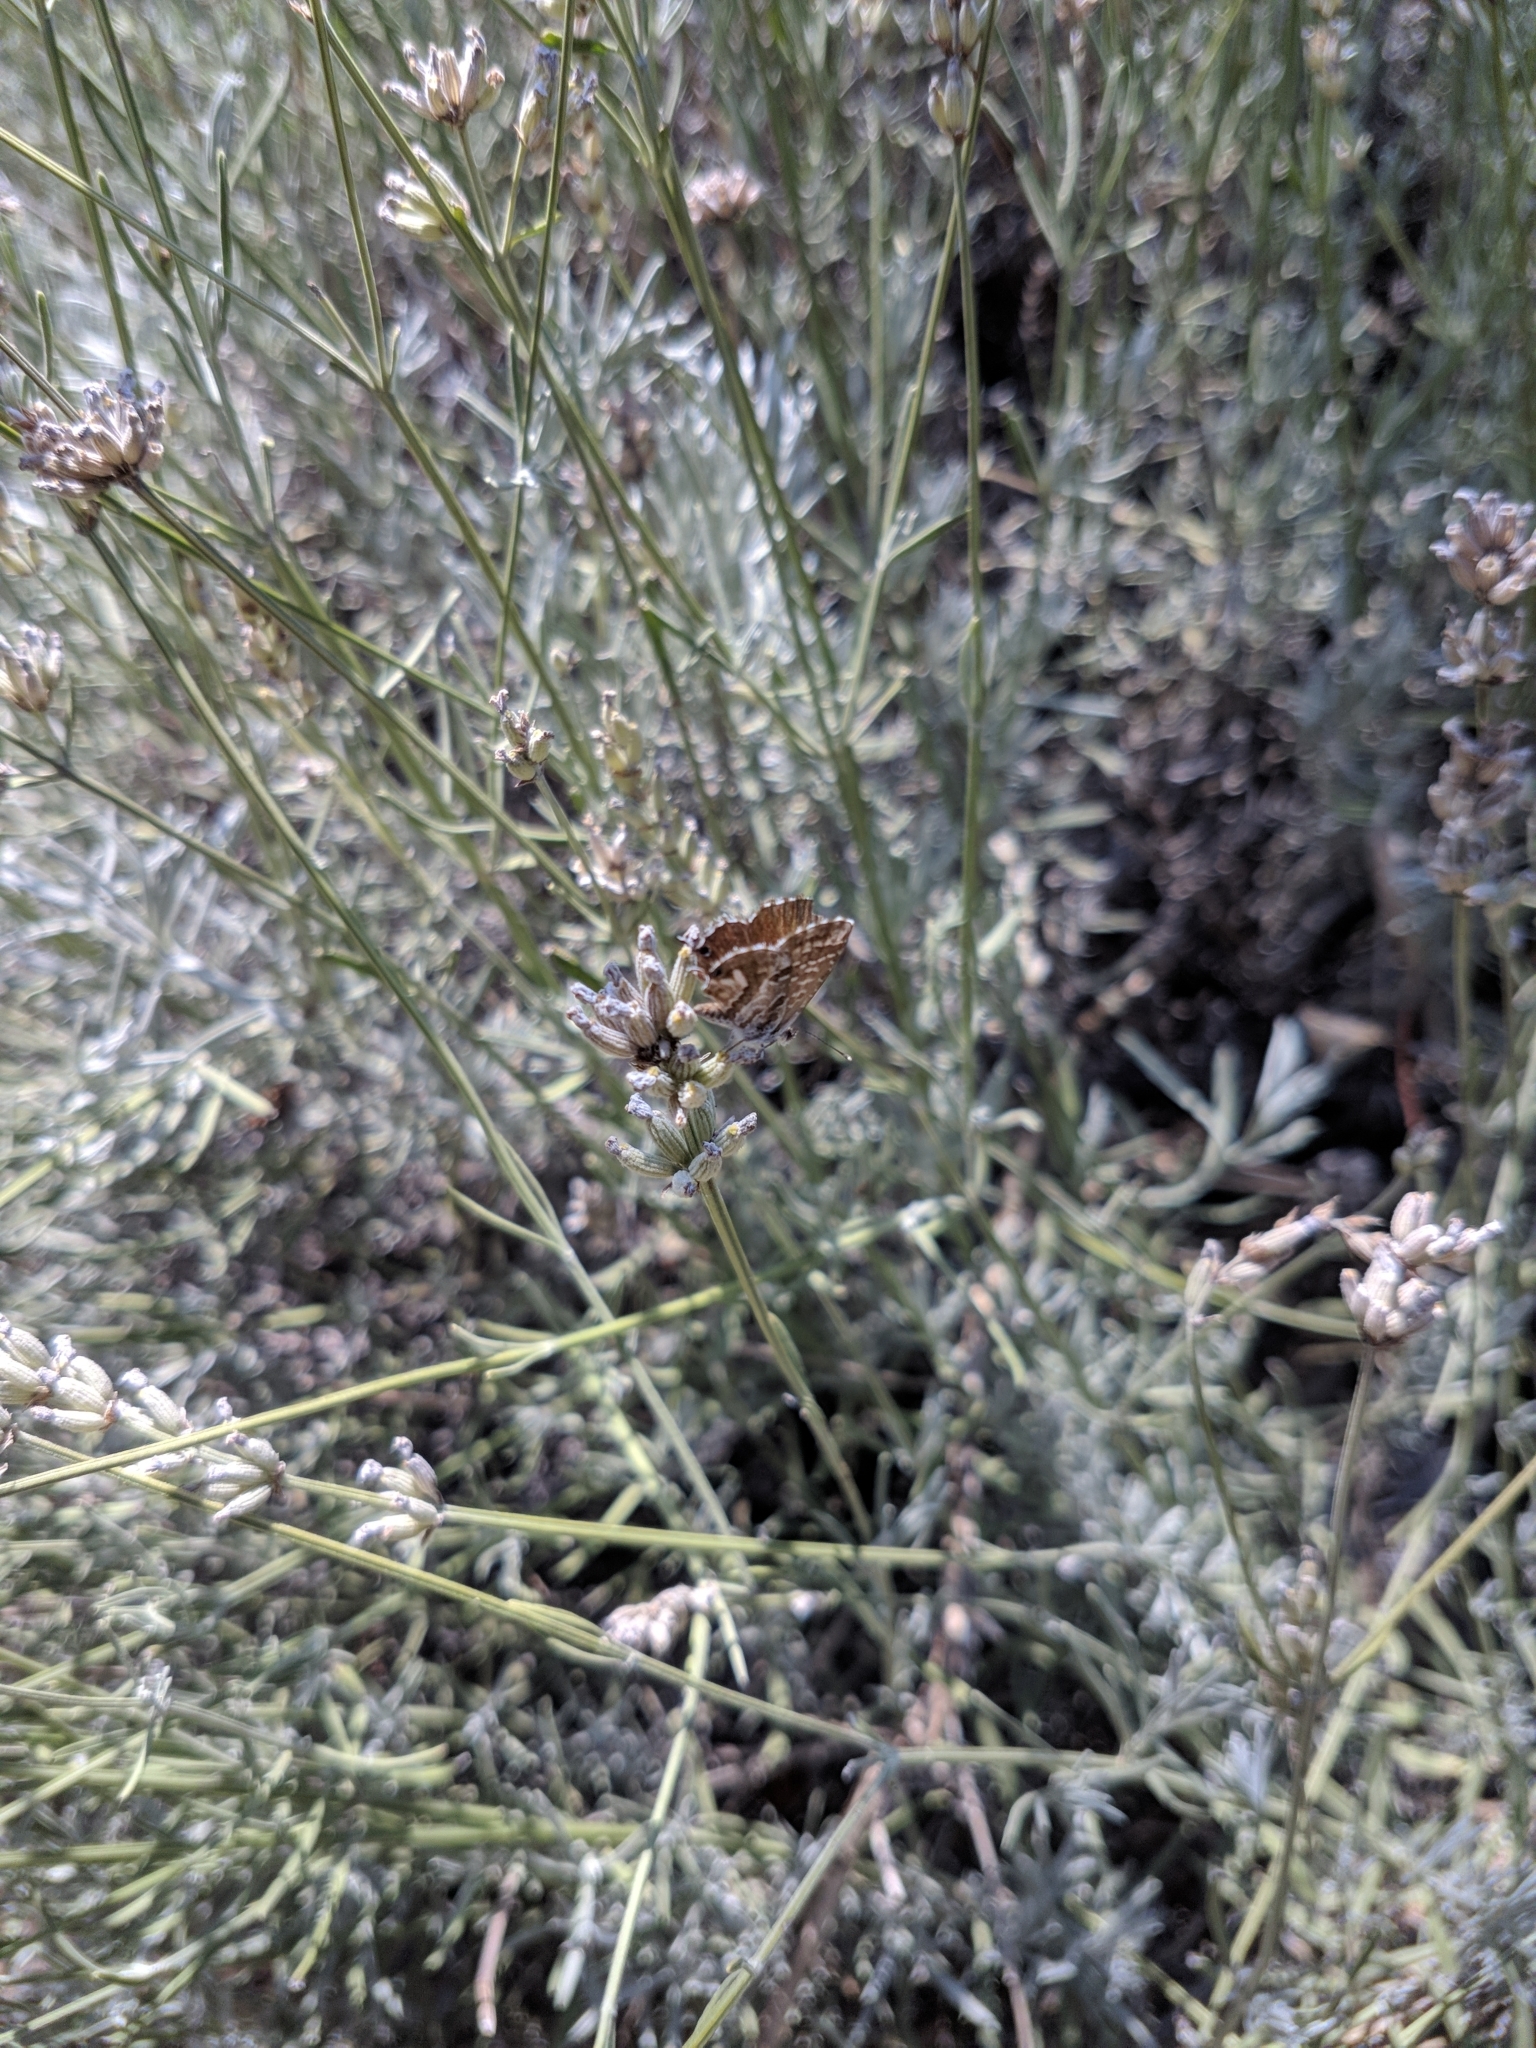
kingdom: Animalia
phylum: Arthropoda
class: Insecta
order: Lepidoptera
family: Lycaenidae
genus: Cacyreus
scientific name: Cacyreus marshalli
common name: Geranium bronze
